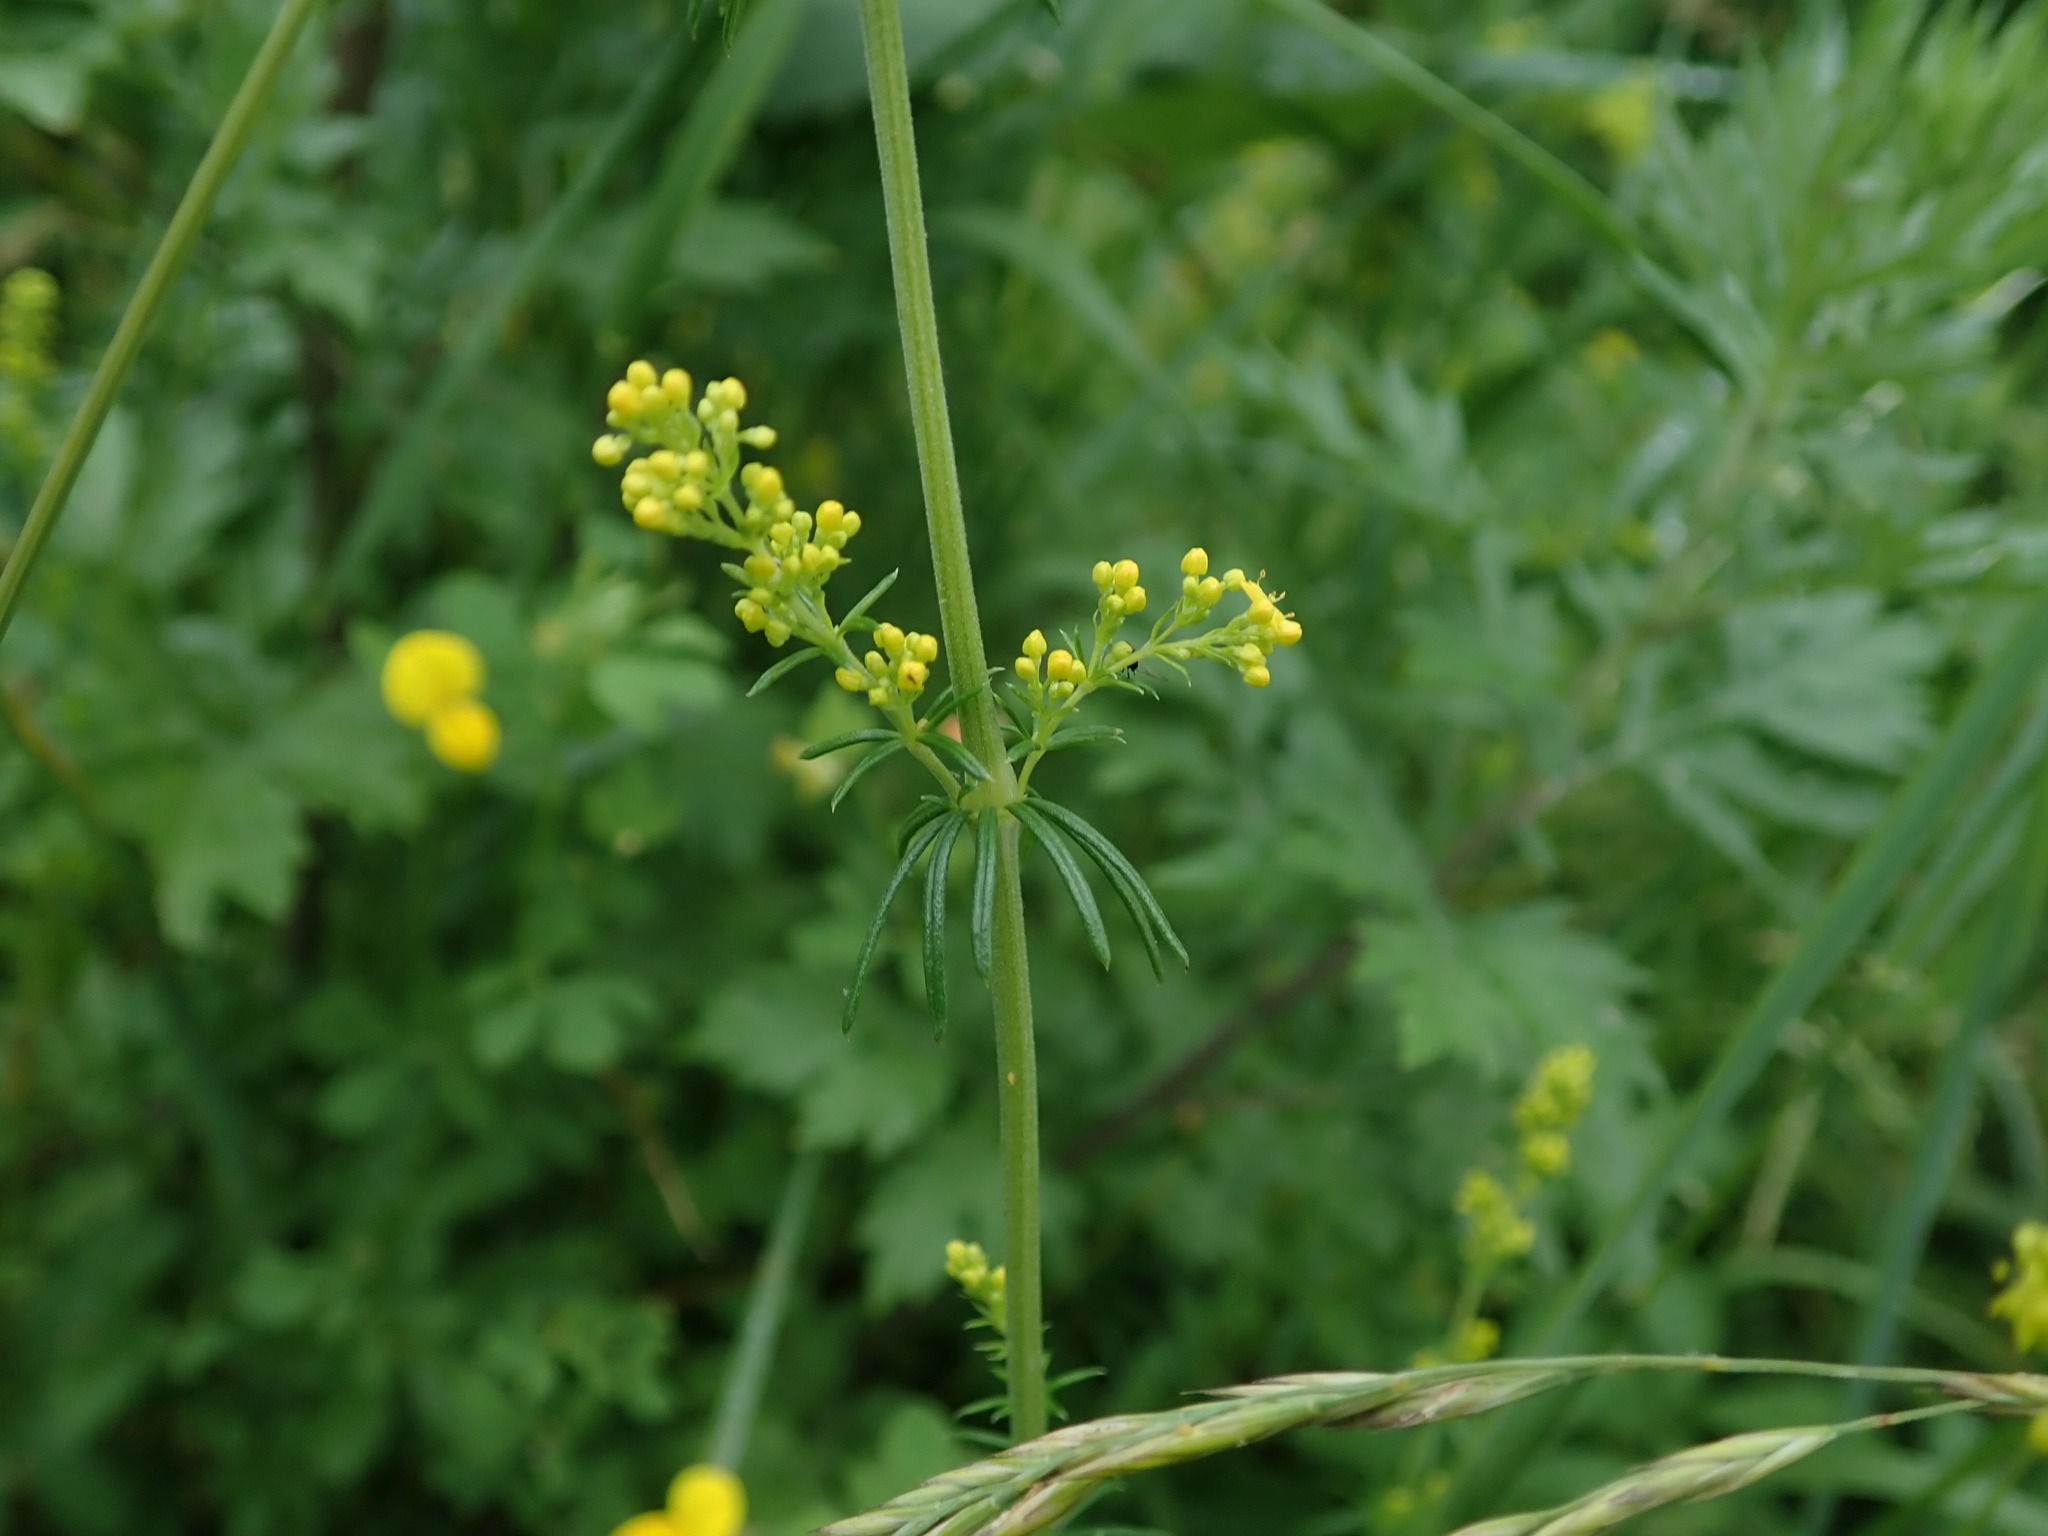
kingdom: Plantae
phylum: Tracheophyta
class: Magnoliopsida
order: Gentianales
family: Rubiaceae
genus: Galium
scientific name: Galium verum
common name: Lady's bedstraw
